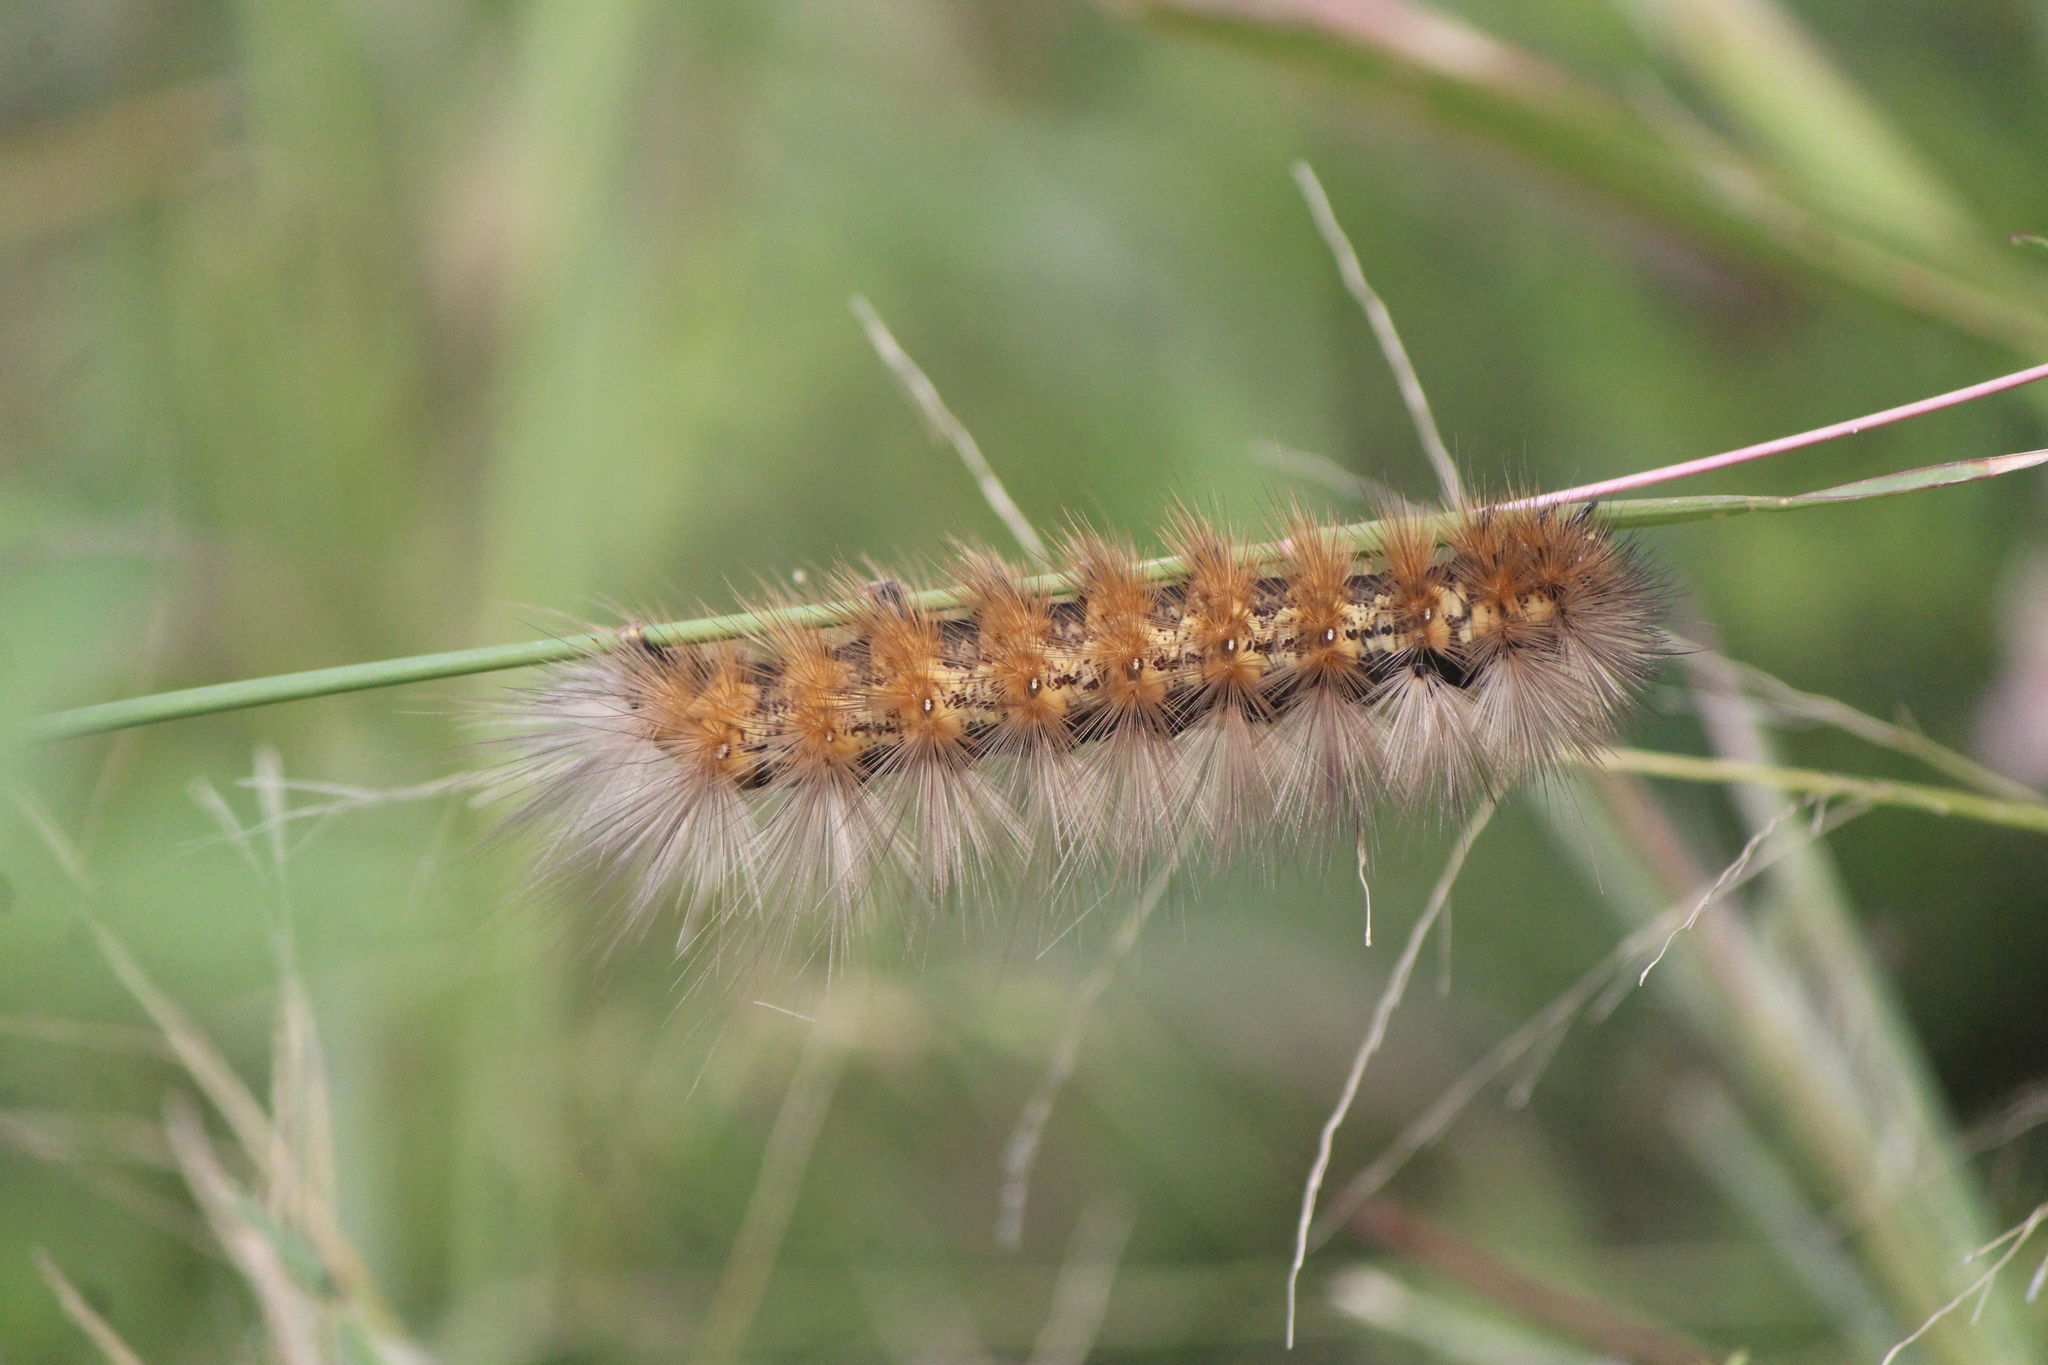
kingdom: Animalia
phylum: Arthropoda
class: Insecta
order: Lepidoptera
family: Erebidae
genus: Estigmene
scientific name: Estigmene acrea
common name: Salt marsh moth
